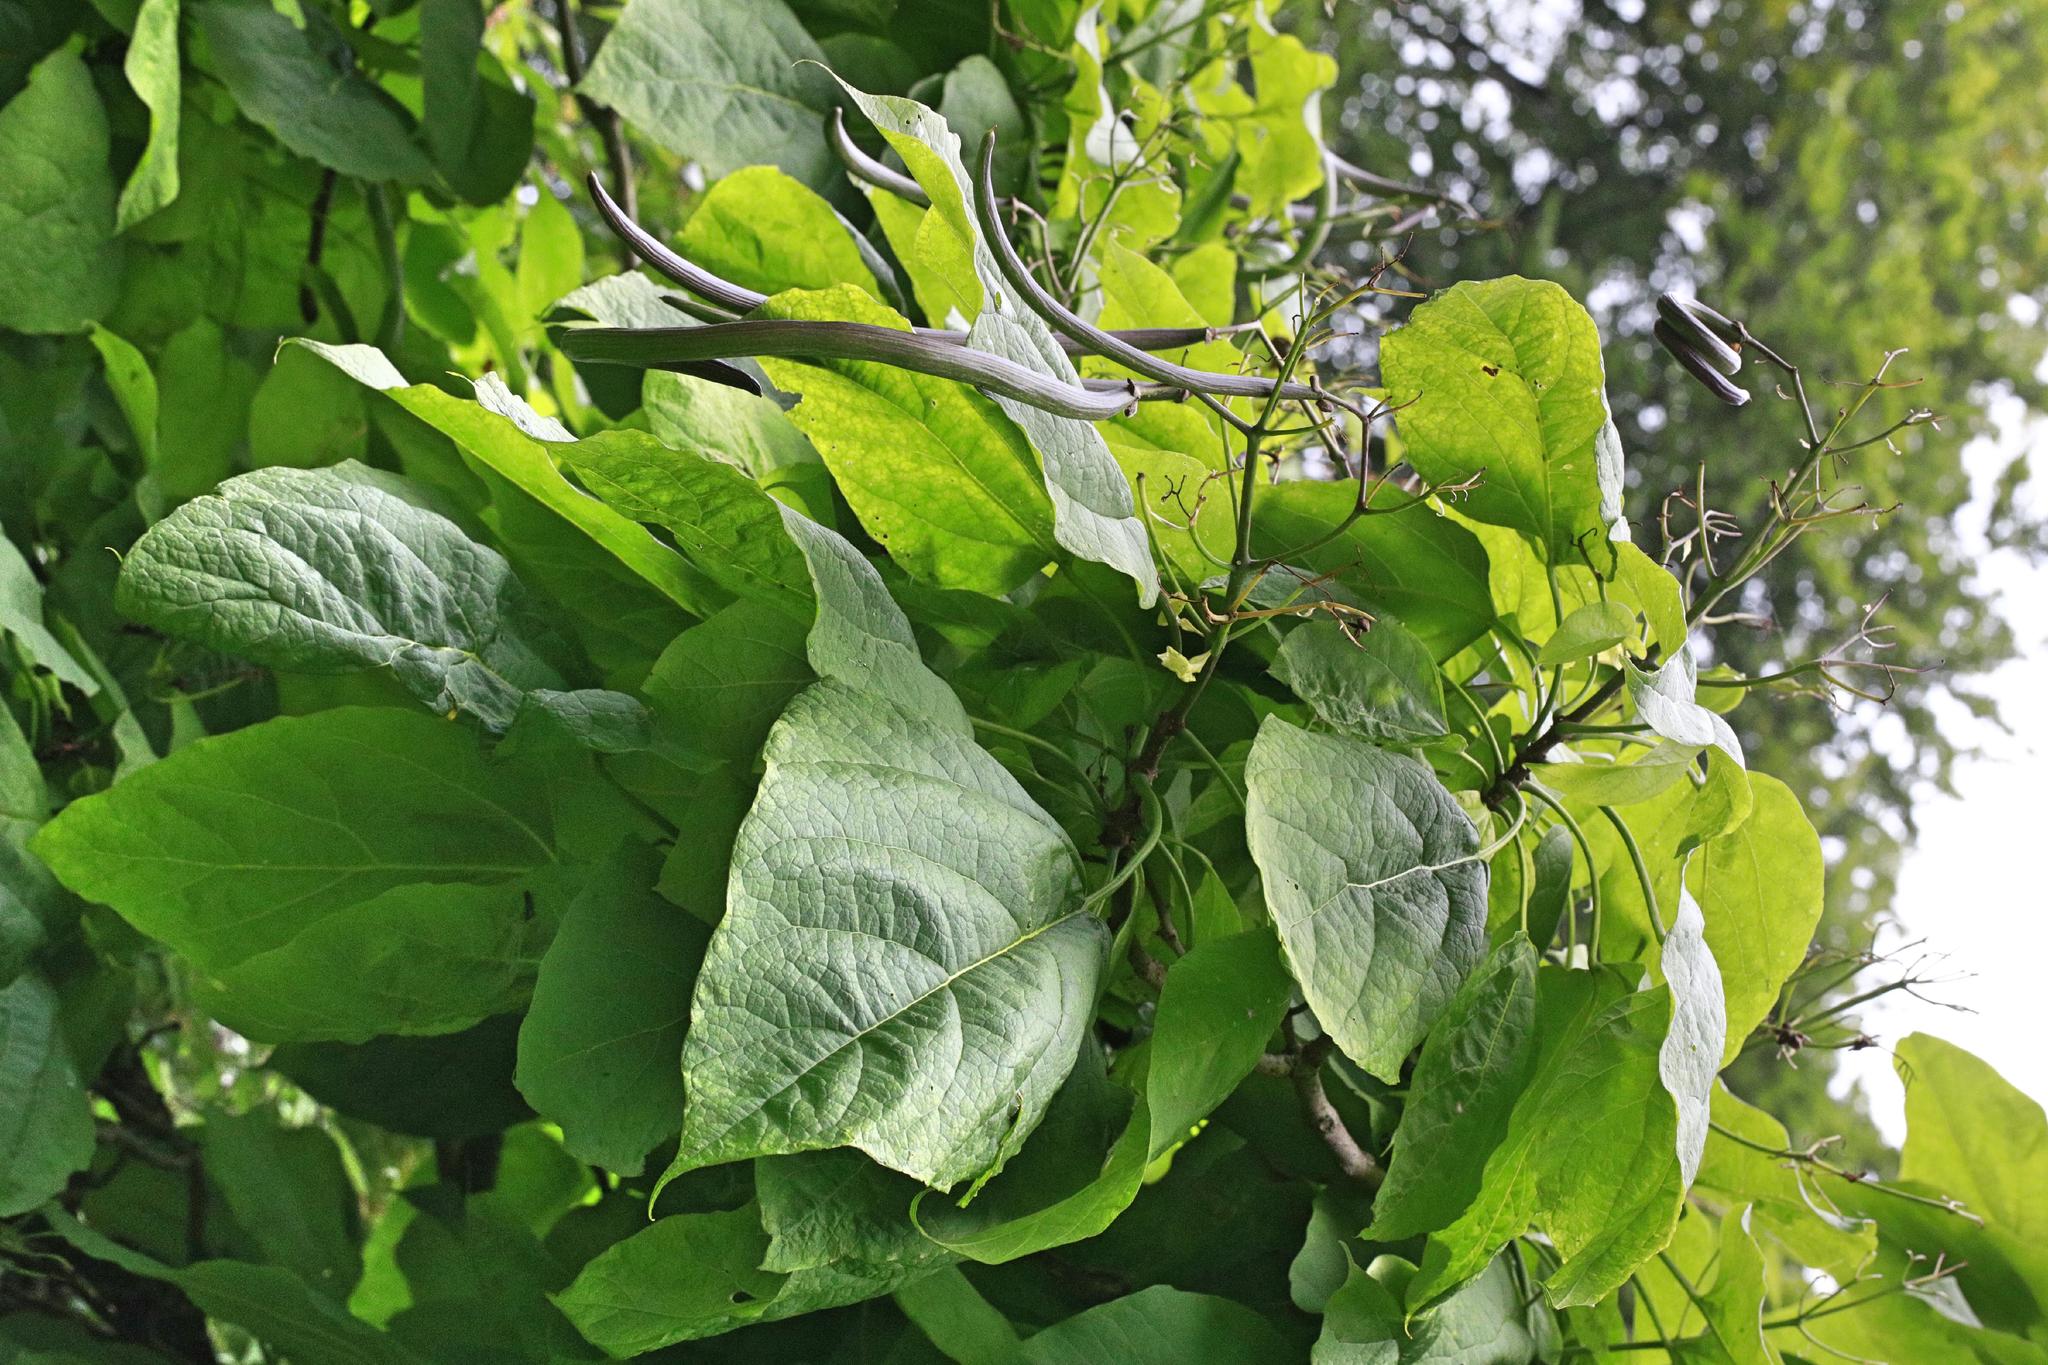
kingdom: Plantae
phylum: Tracheophyta
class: Magnoliopsida
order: Lamiales
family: Bignoniaceae
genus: Catalpa
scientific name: Catalpa speciosa
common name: Northern catalpa
